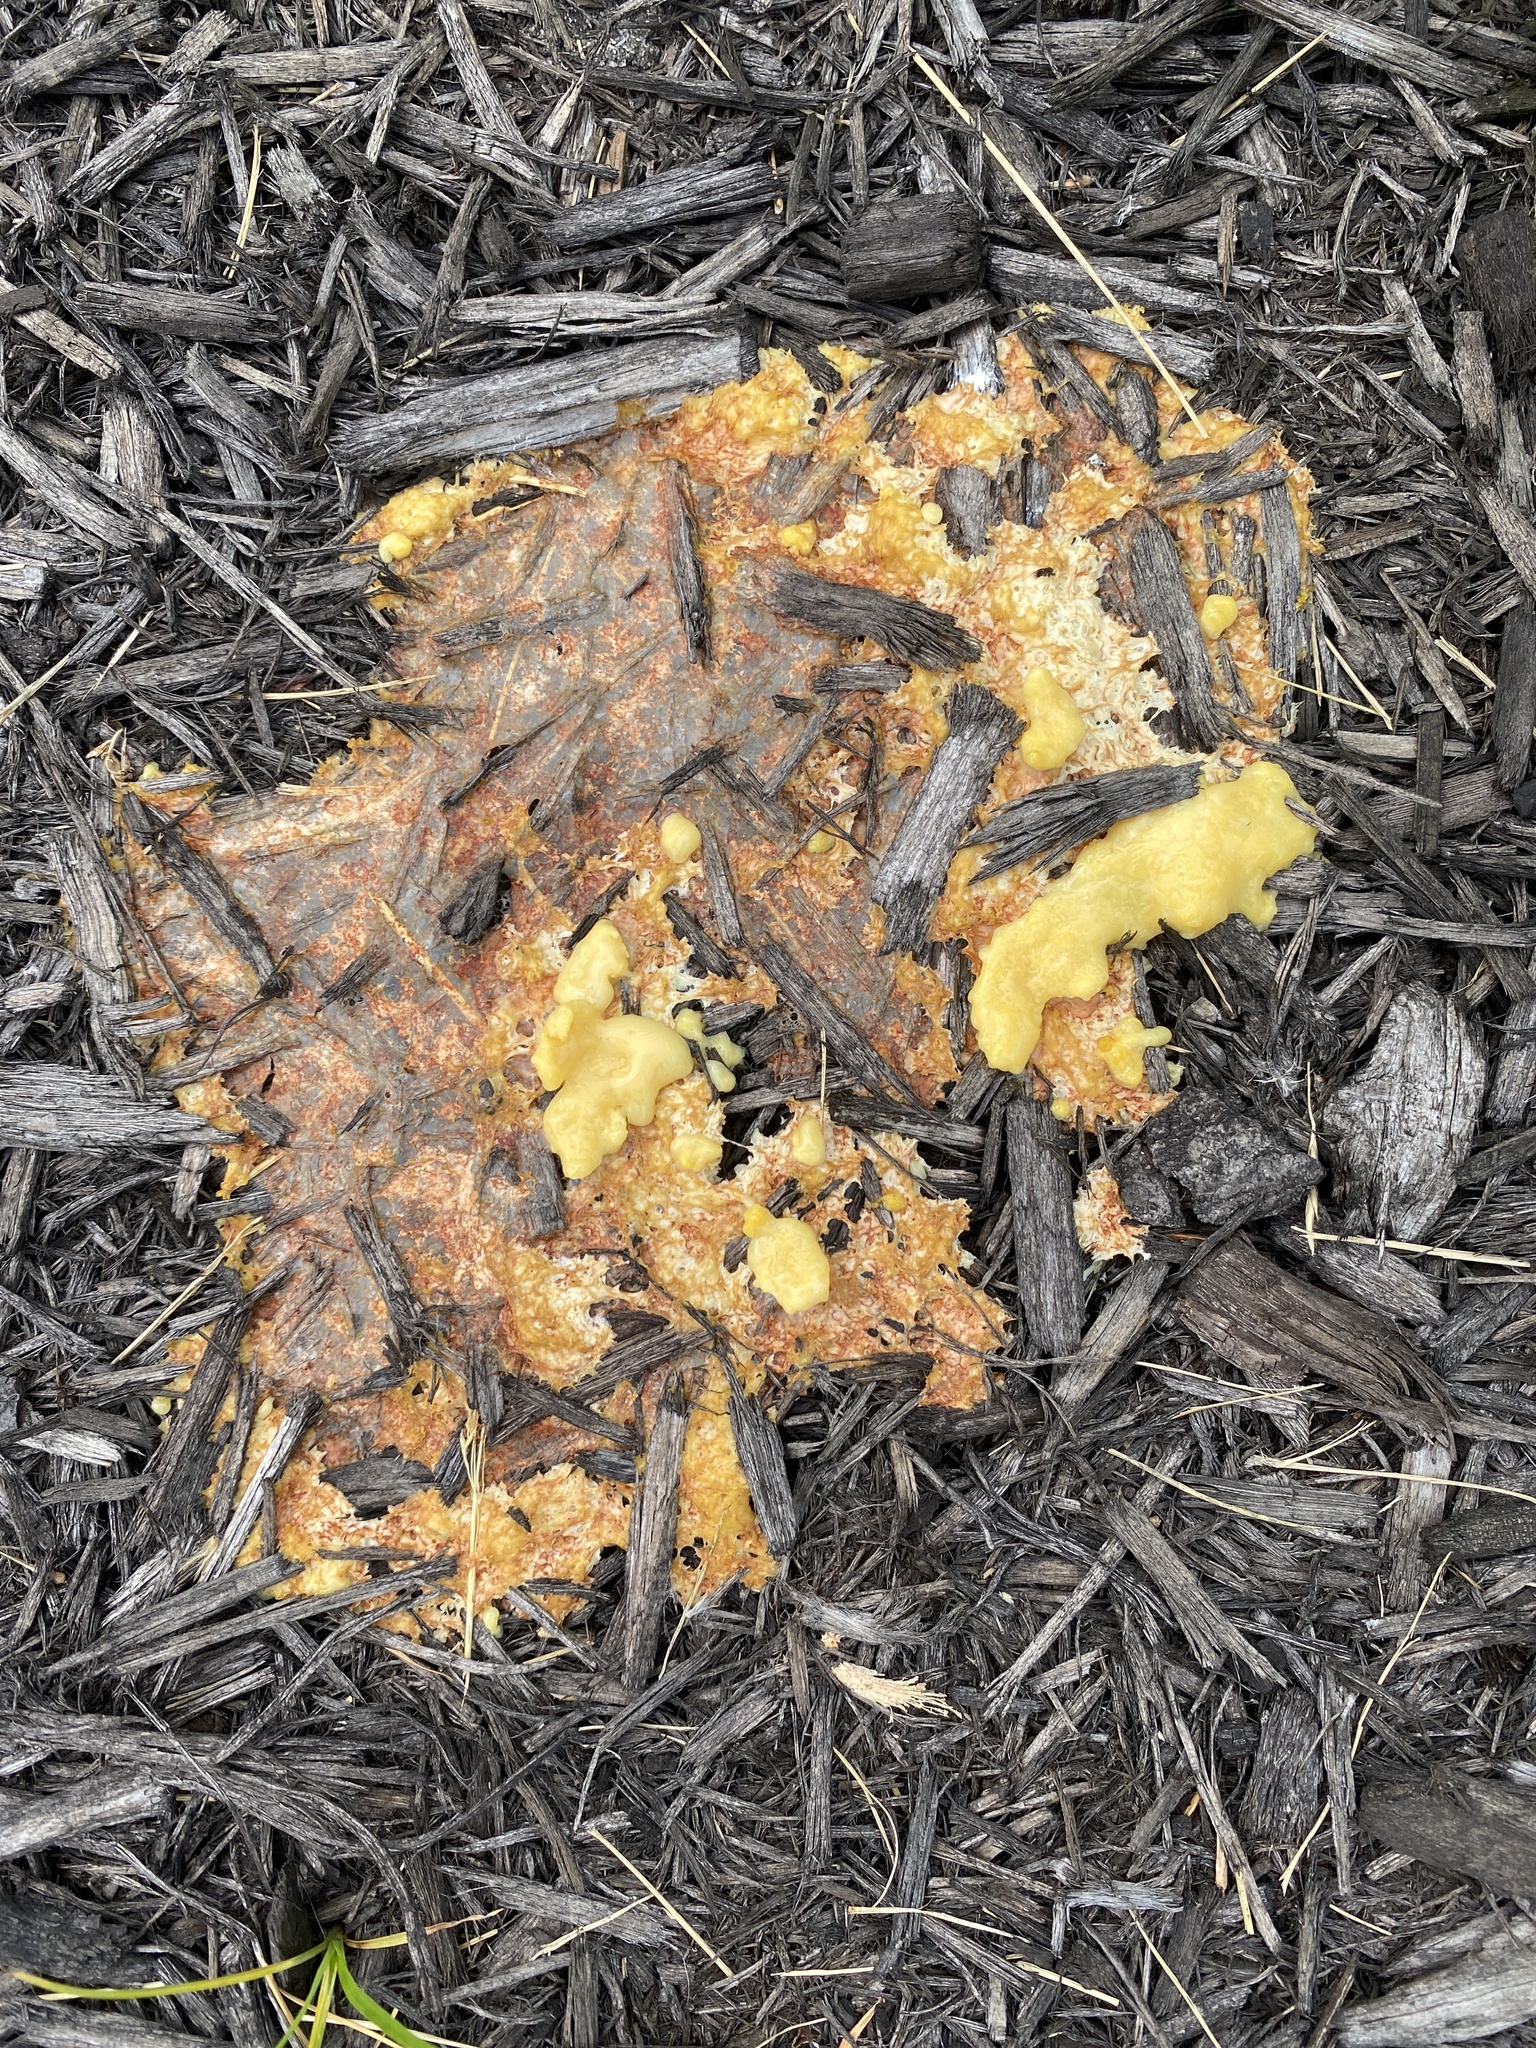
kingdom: Protozoa
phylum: Mycetozoa
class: Myxomycetes
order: Physarales
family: Physaraceae
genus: Fuligo
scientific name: Fuligo septica
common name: Dog vomit slime mold
